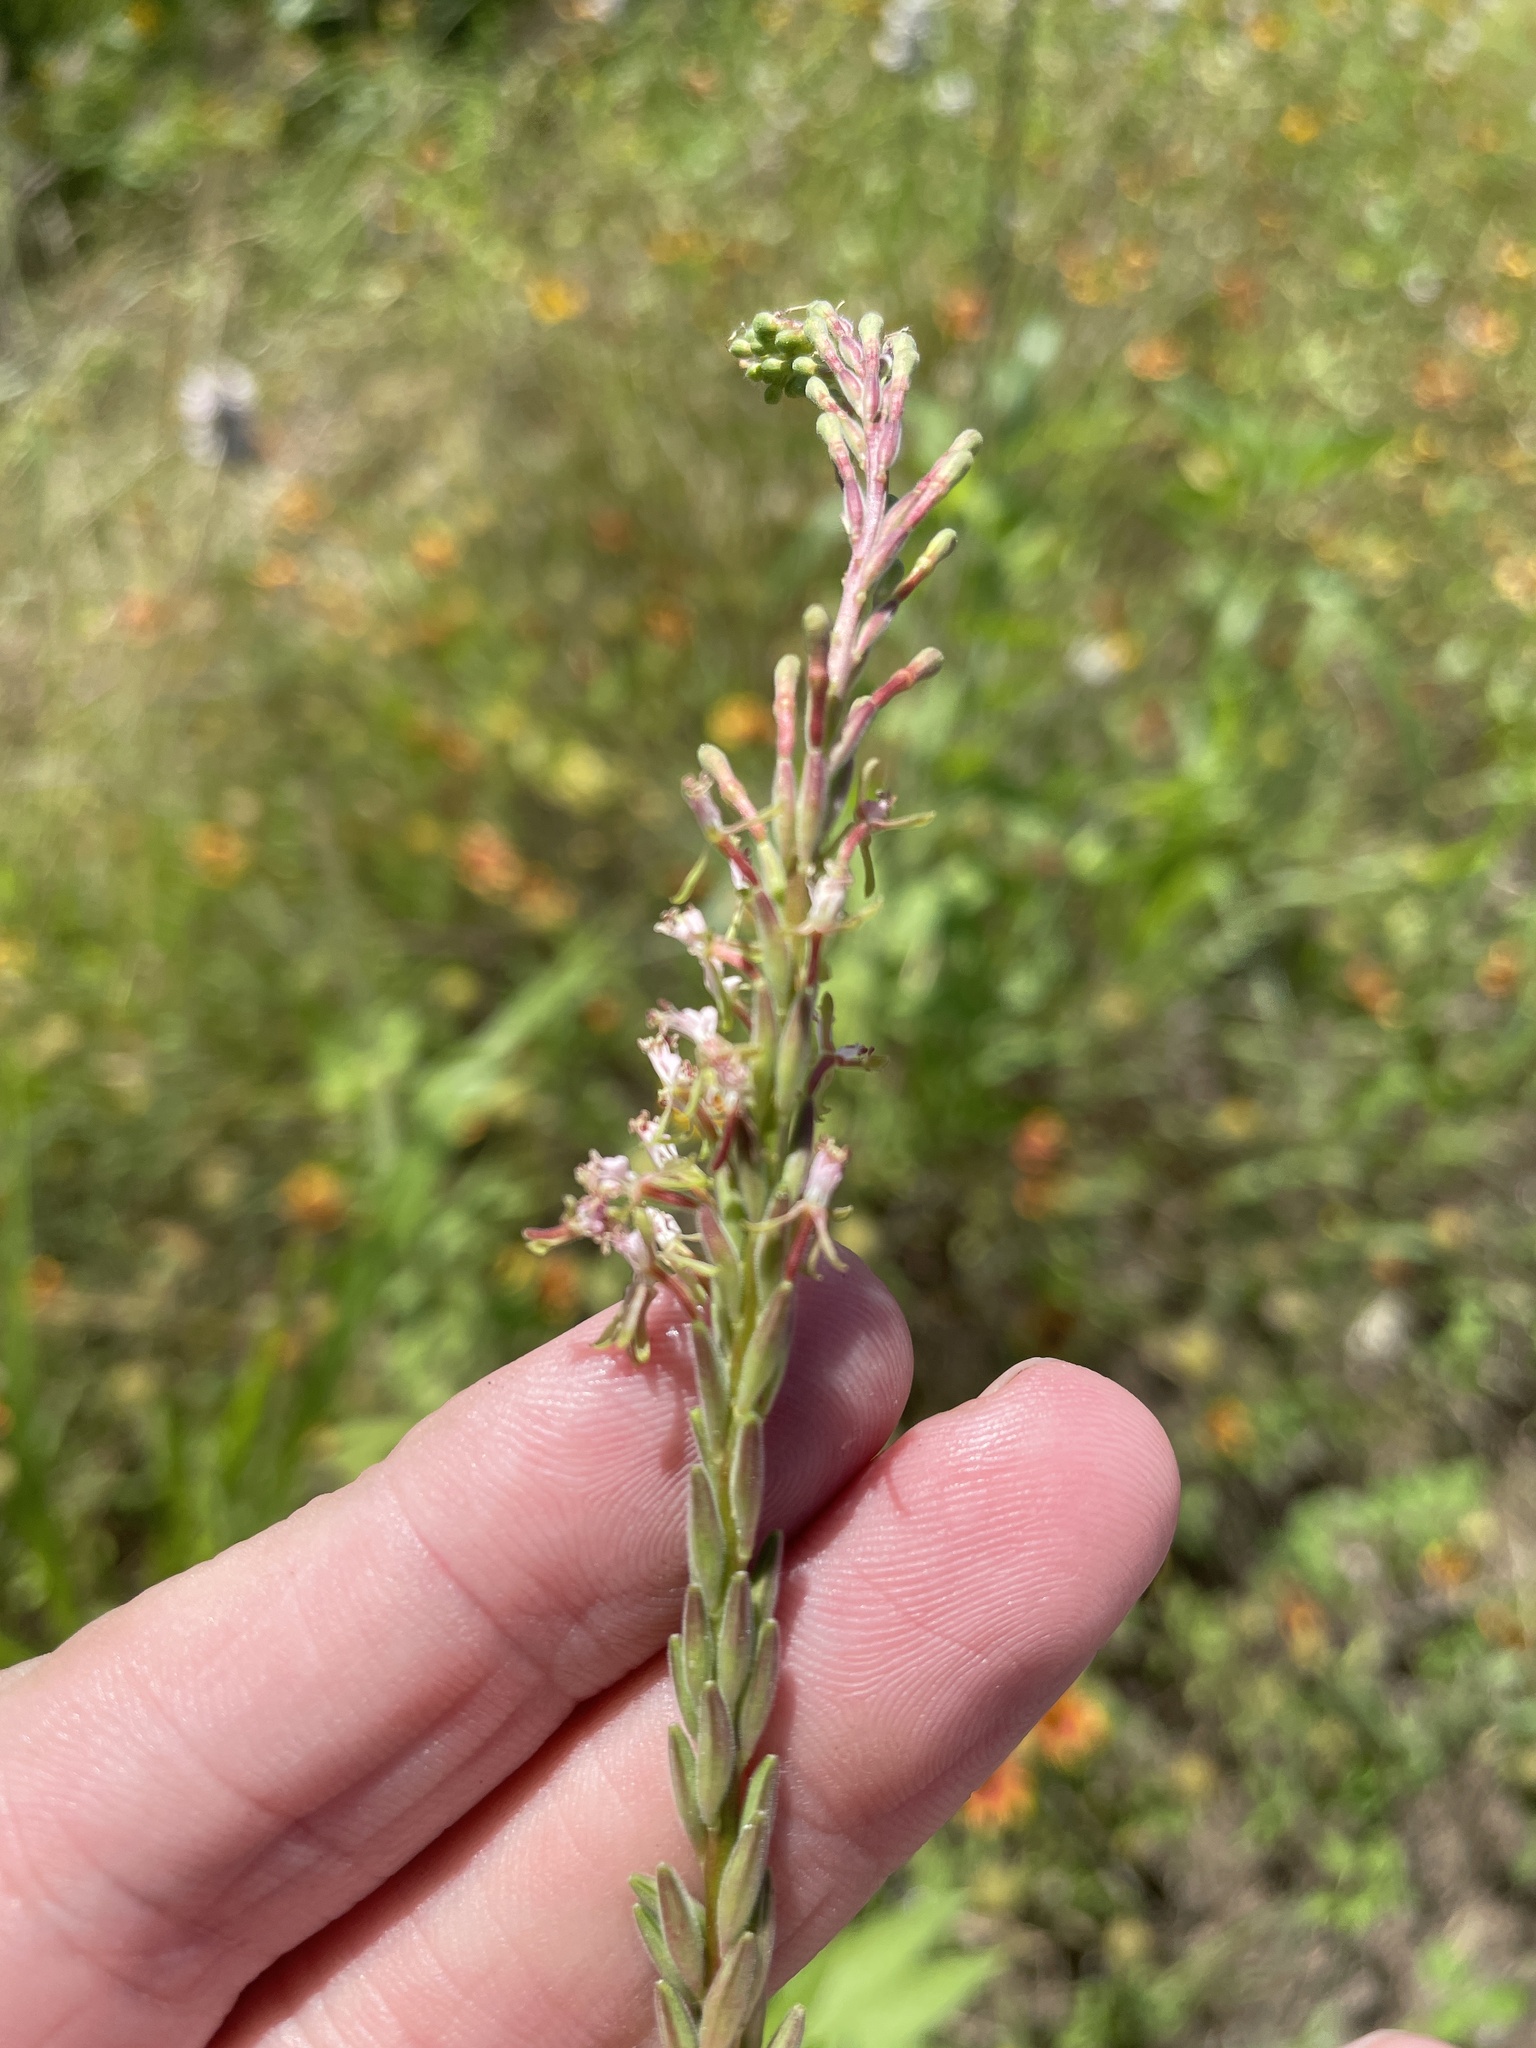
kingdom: Plantae
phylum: Tracheophyta
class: Magnoliopsida
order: Myrtales
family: Onagraceae
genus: Oenothera
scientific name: Oenothera curtiflora
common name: Velvetweed
